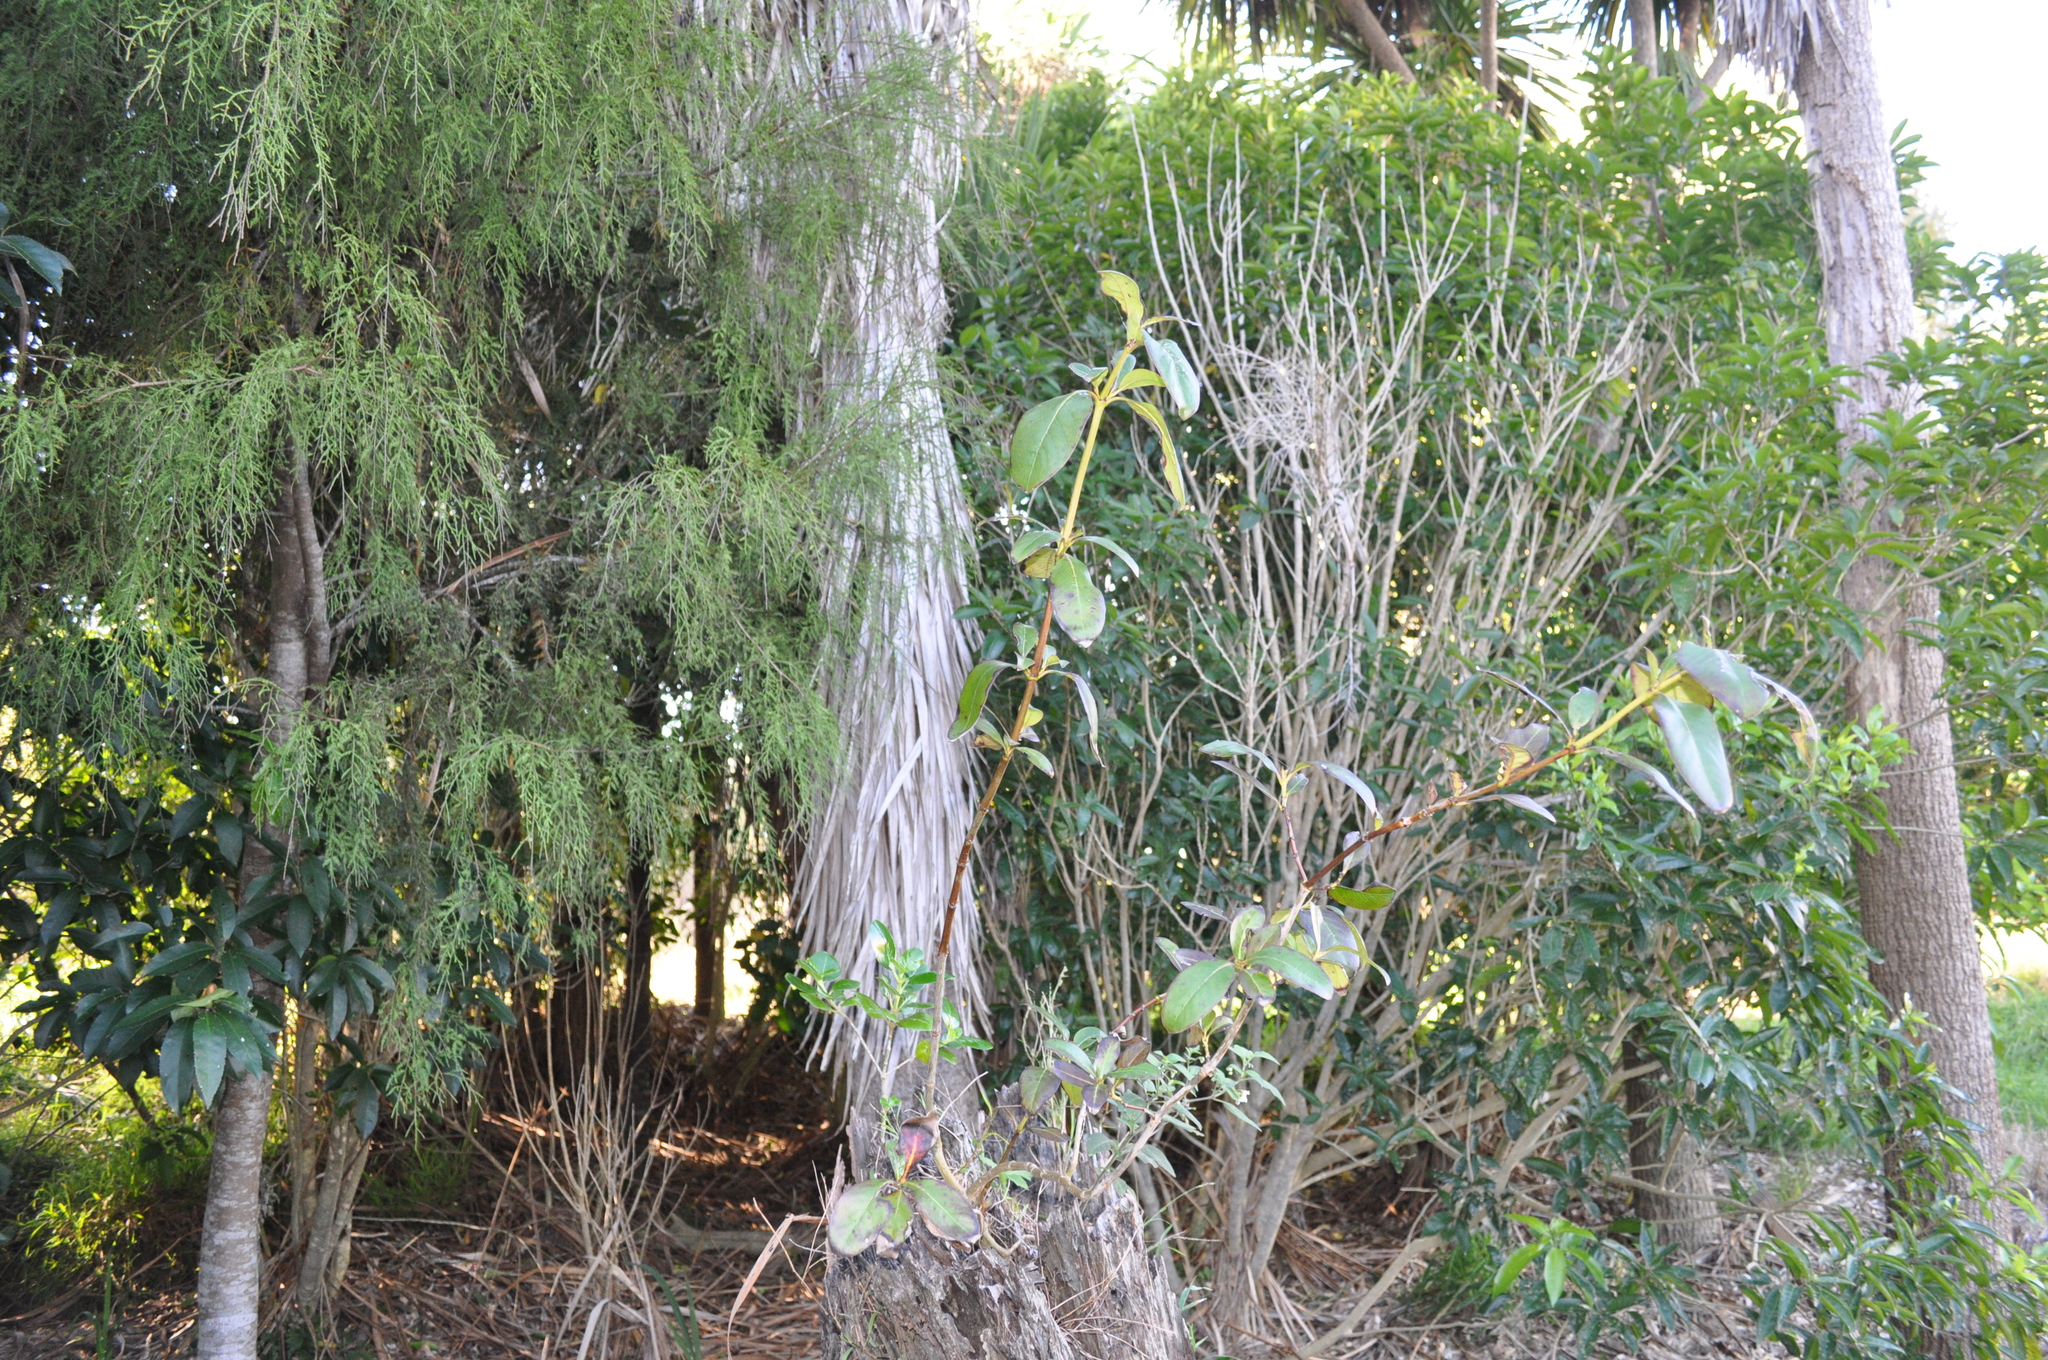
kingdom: Plantae
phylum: Tracheophyta
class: Magnoliopsida
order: Gentianales
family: Rubiaceae
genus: Coprosma
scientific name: Coprosma robusta
